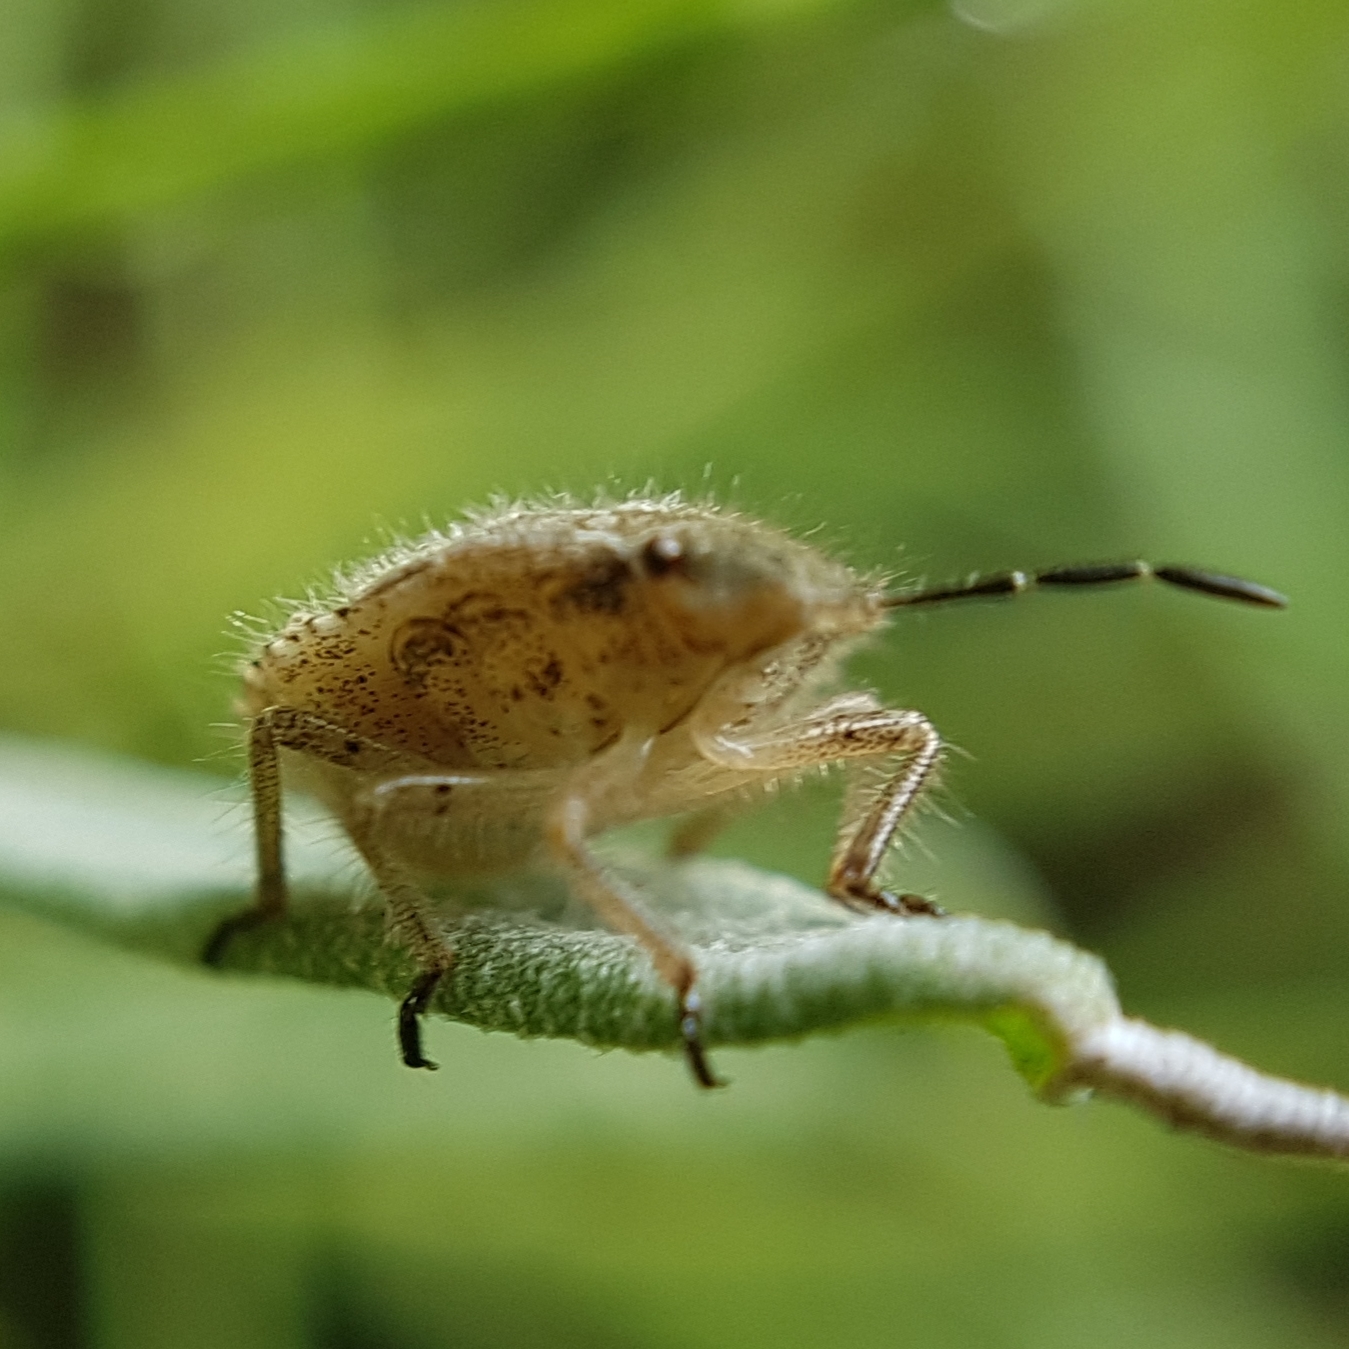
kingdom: Animalia
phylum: Arthropoda
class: Insecta
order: Hemiptera
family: Pentatomidae
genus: Dolycoris
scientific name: Dolycoris baccarum
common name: Sloe bug
